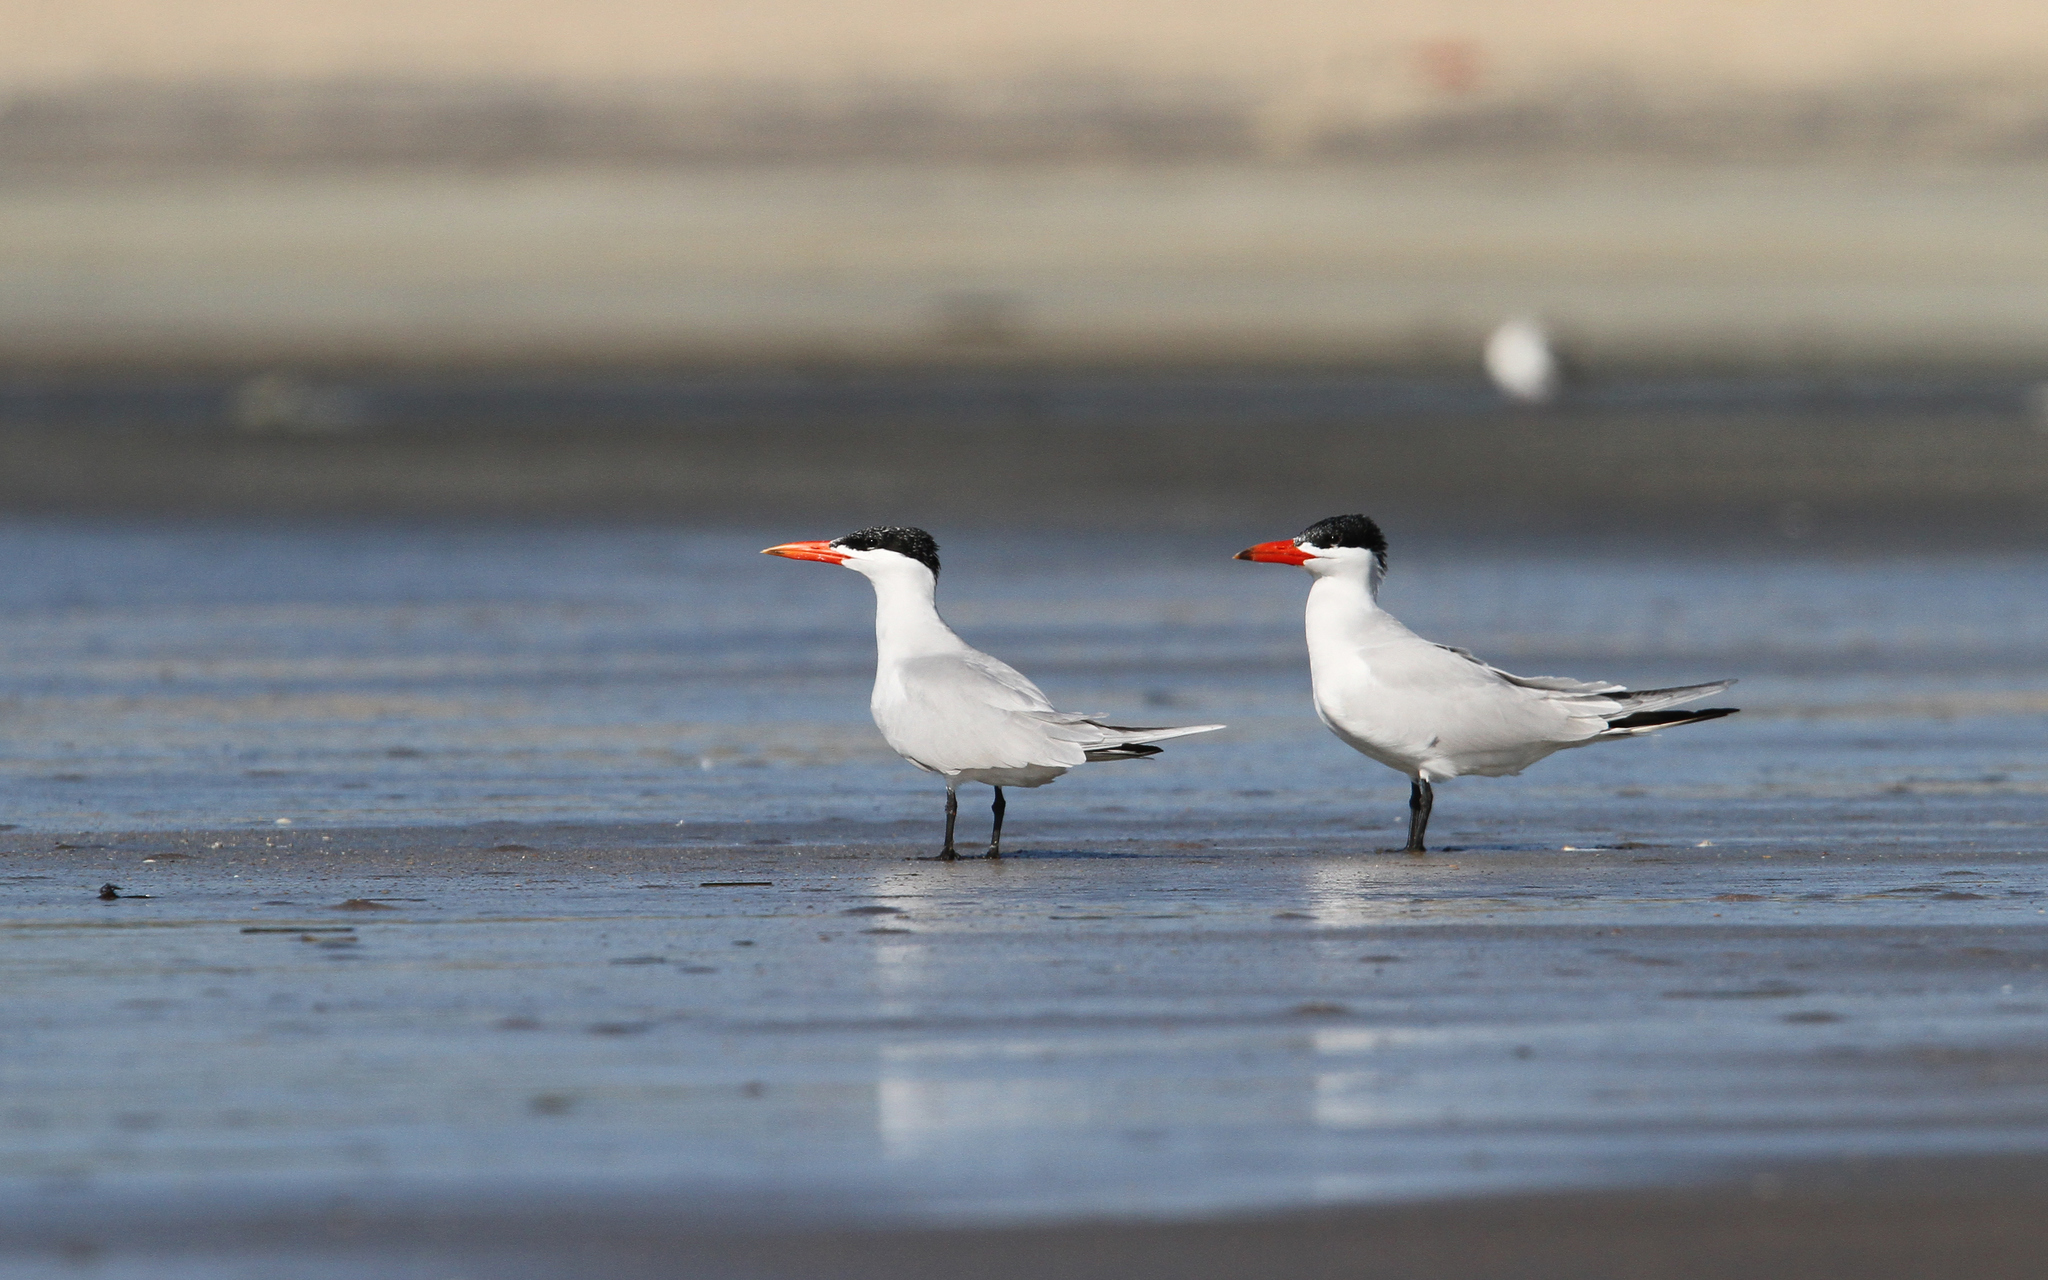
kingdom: Animalia
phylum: Chordata
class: Aves
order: Charadriiformes
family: Laridae
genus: Hydroprogne
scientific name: Hydroprogne caspia
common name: Caspian tern
